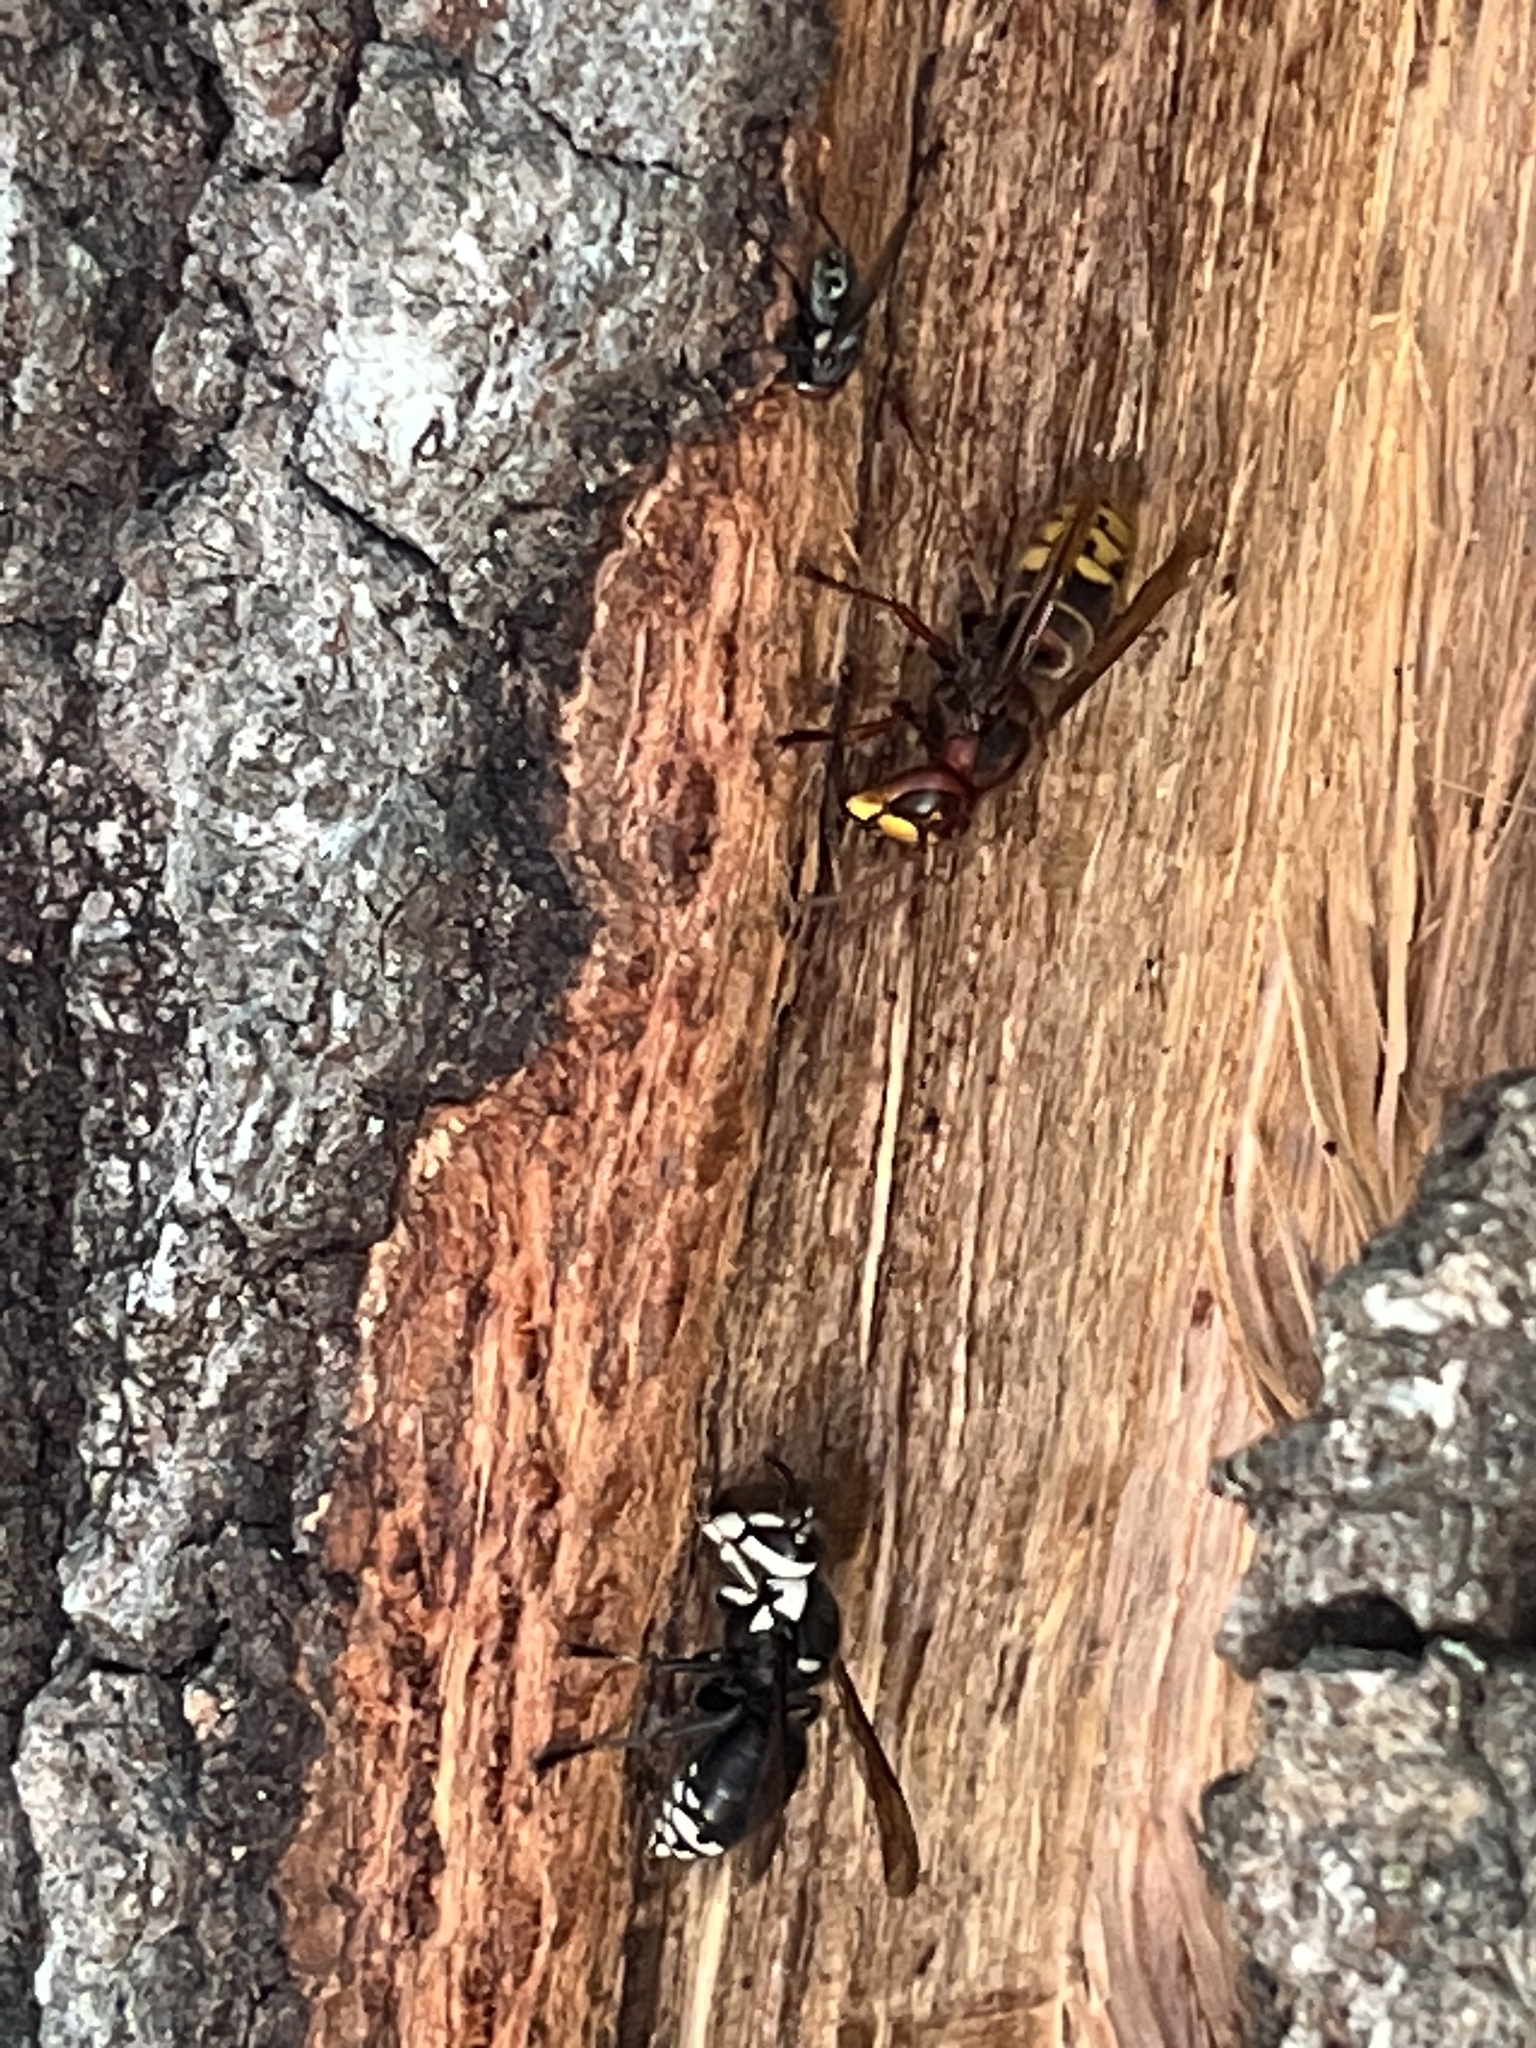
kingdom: Animalia
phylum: Arthropoda
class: Insecta
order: Hymenoptera
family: Vespidae
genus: Dolichovespula
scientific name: Dolichovespula maculata
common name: Bald-faced hornet
